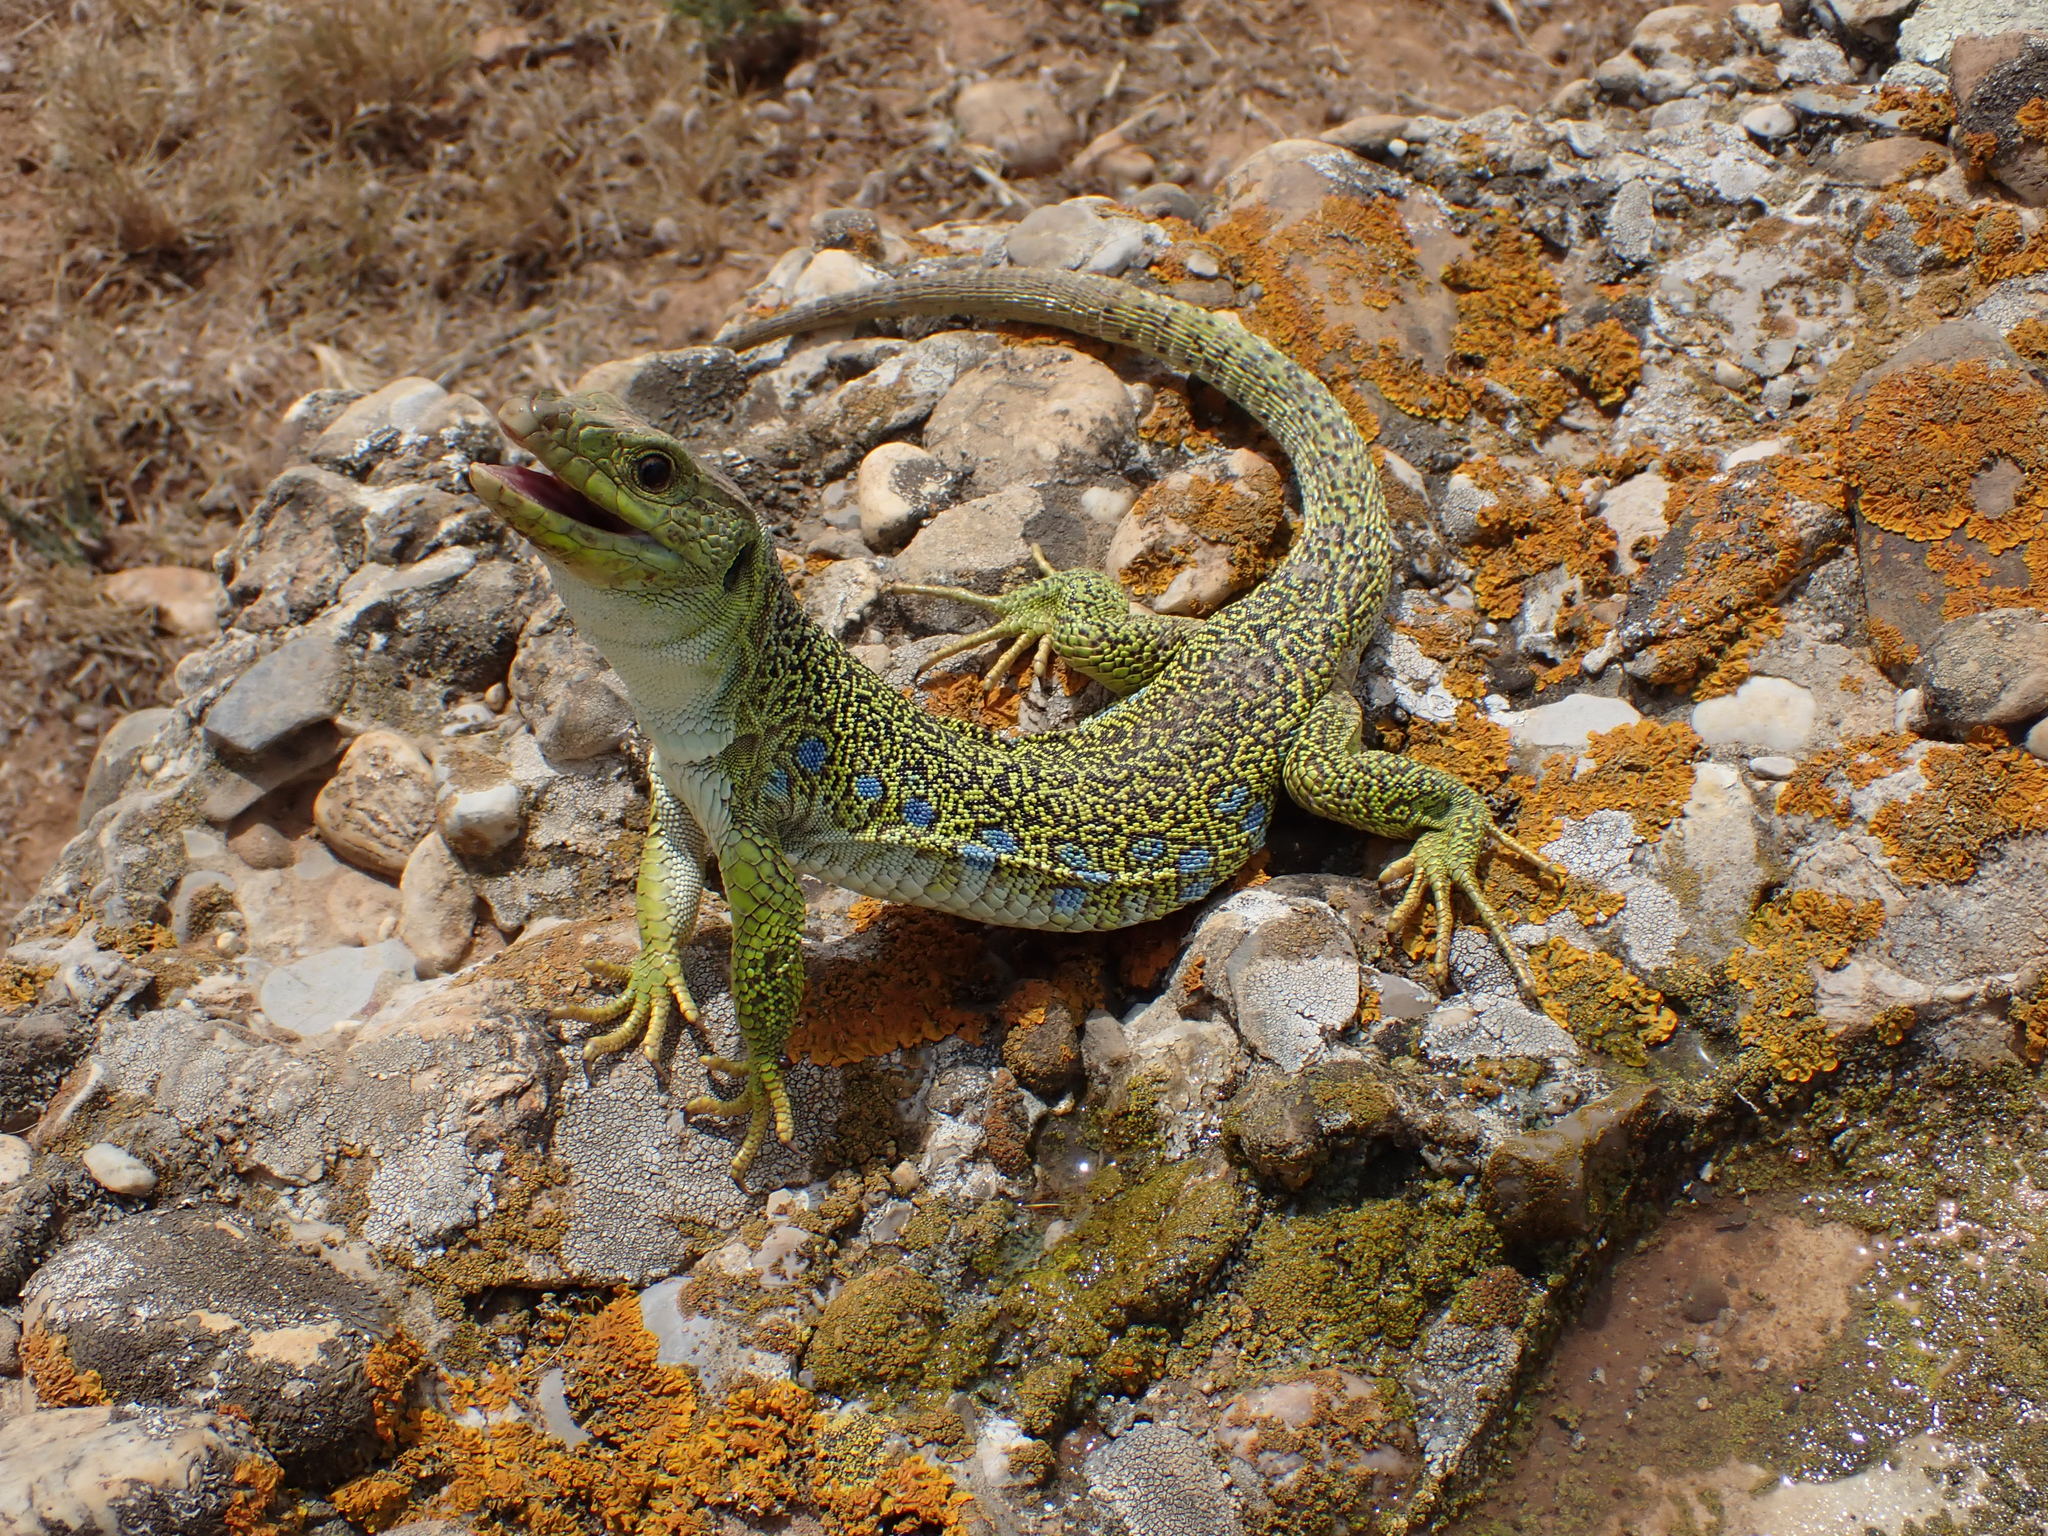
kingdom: Animalia
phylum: Chordata
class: Squamata
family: Lacertidae
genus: Timon
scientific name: Timon lepidus
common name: Ocellated lizard
